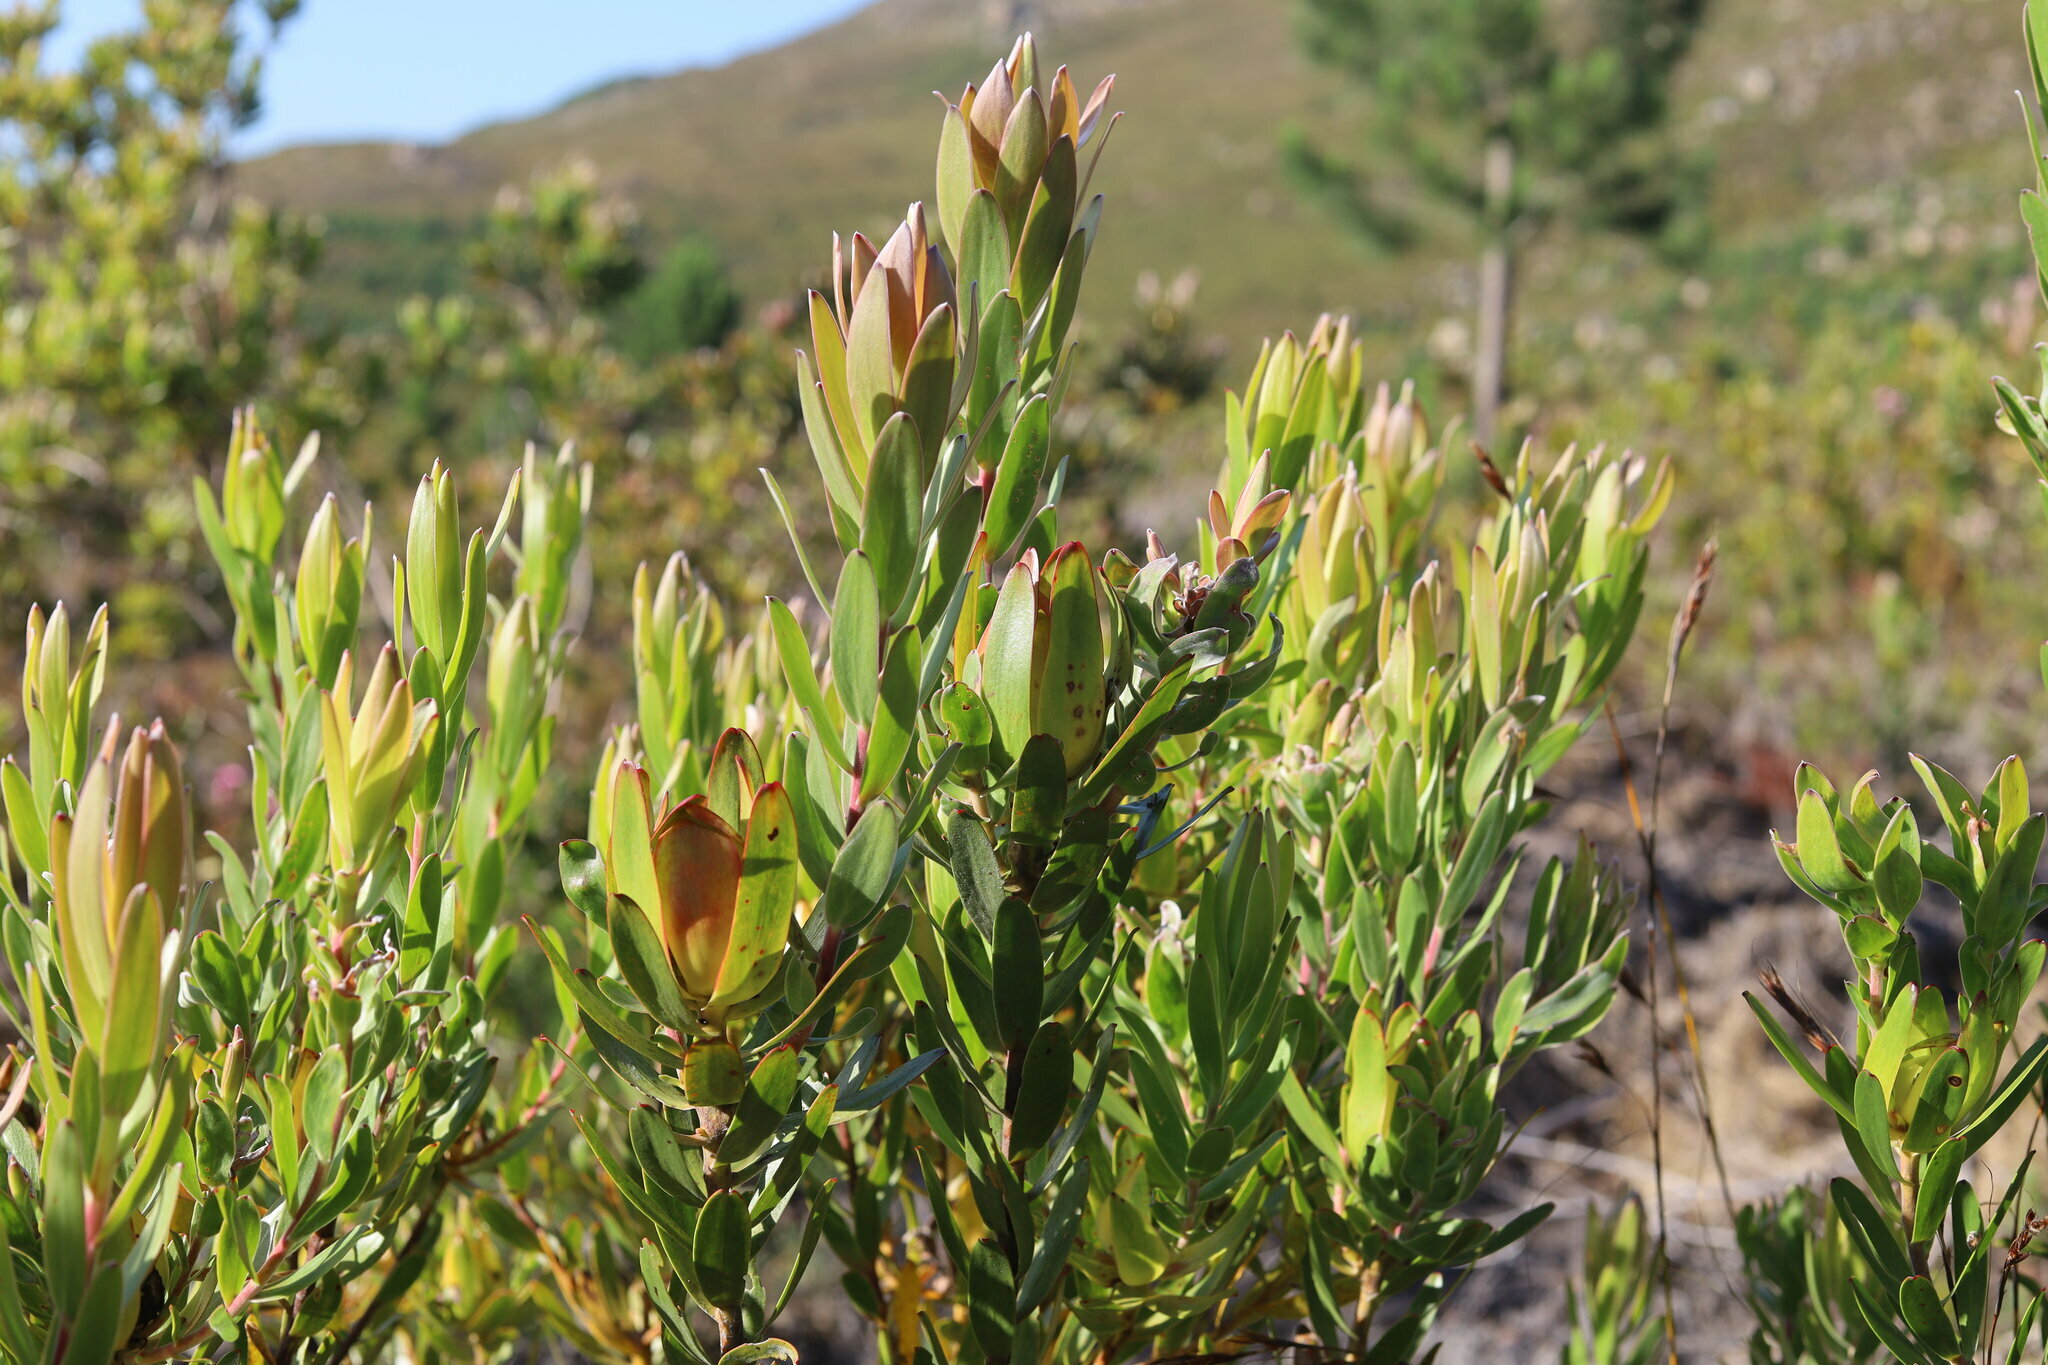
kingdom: Plantae
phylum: Tracheophyta
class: Magnoliopsida
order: Proteales
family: Proteaceae
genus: Leucadendron
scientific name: Leucadendron laureolum
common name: Golden sunshinebush
